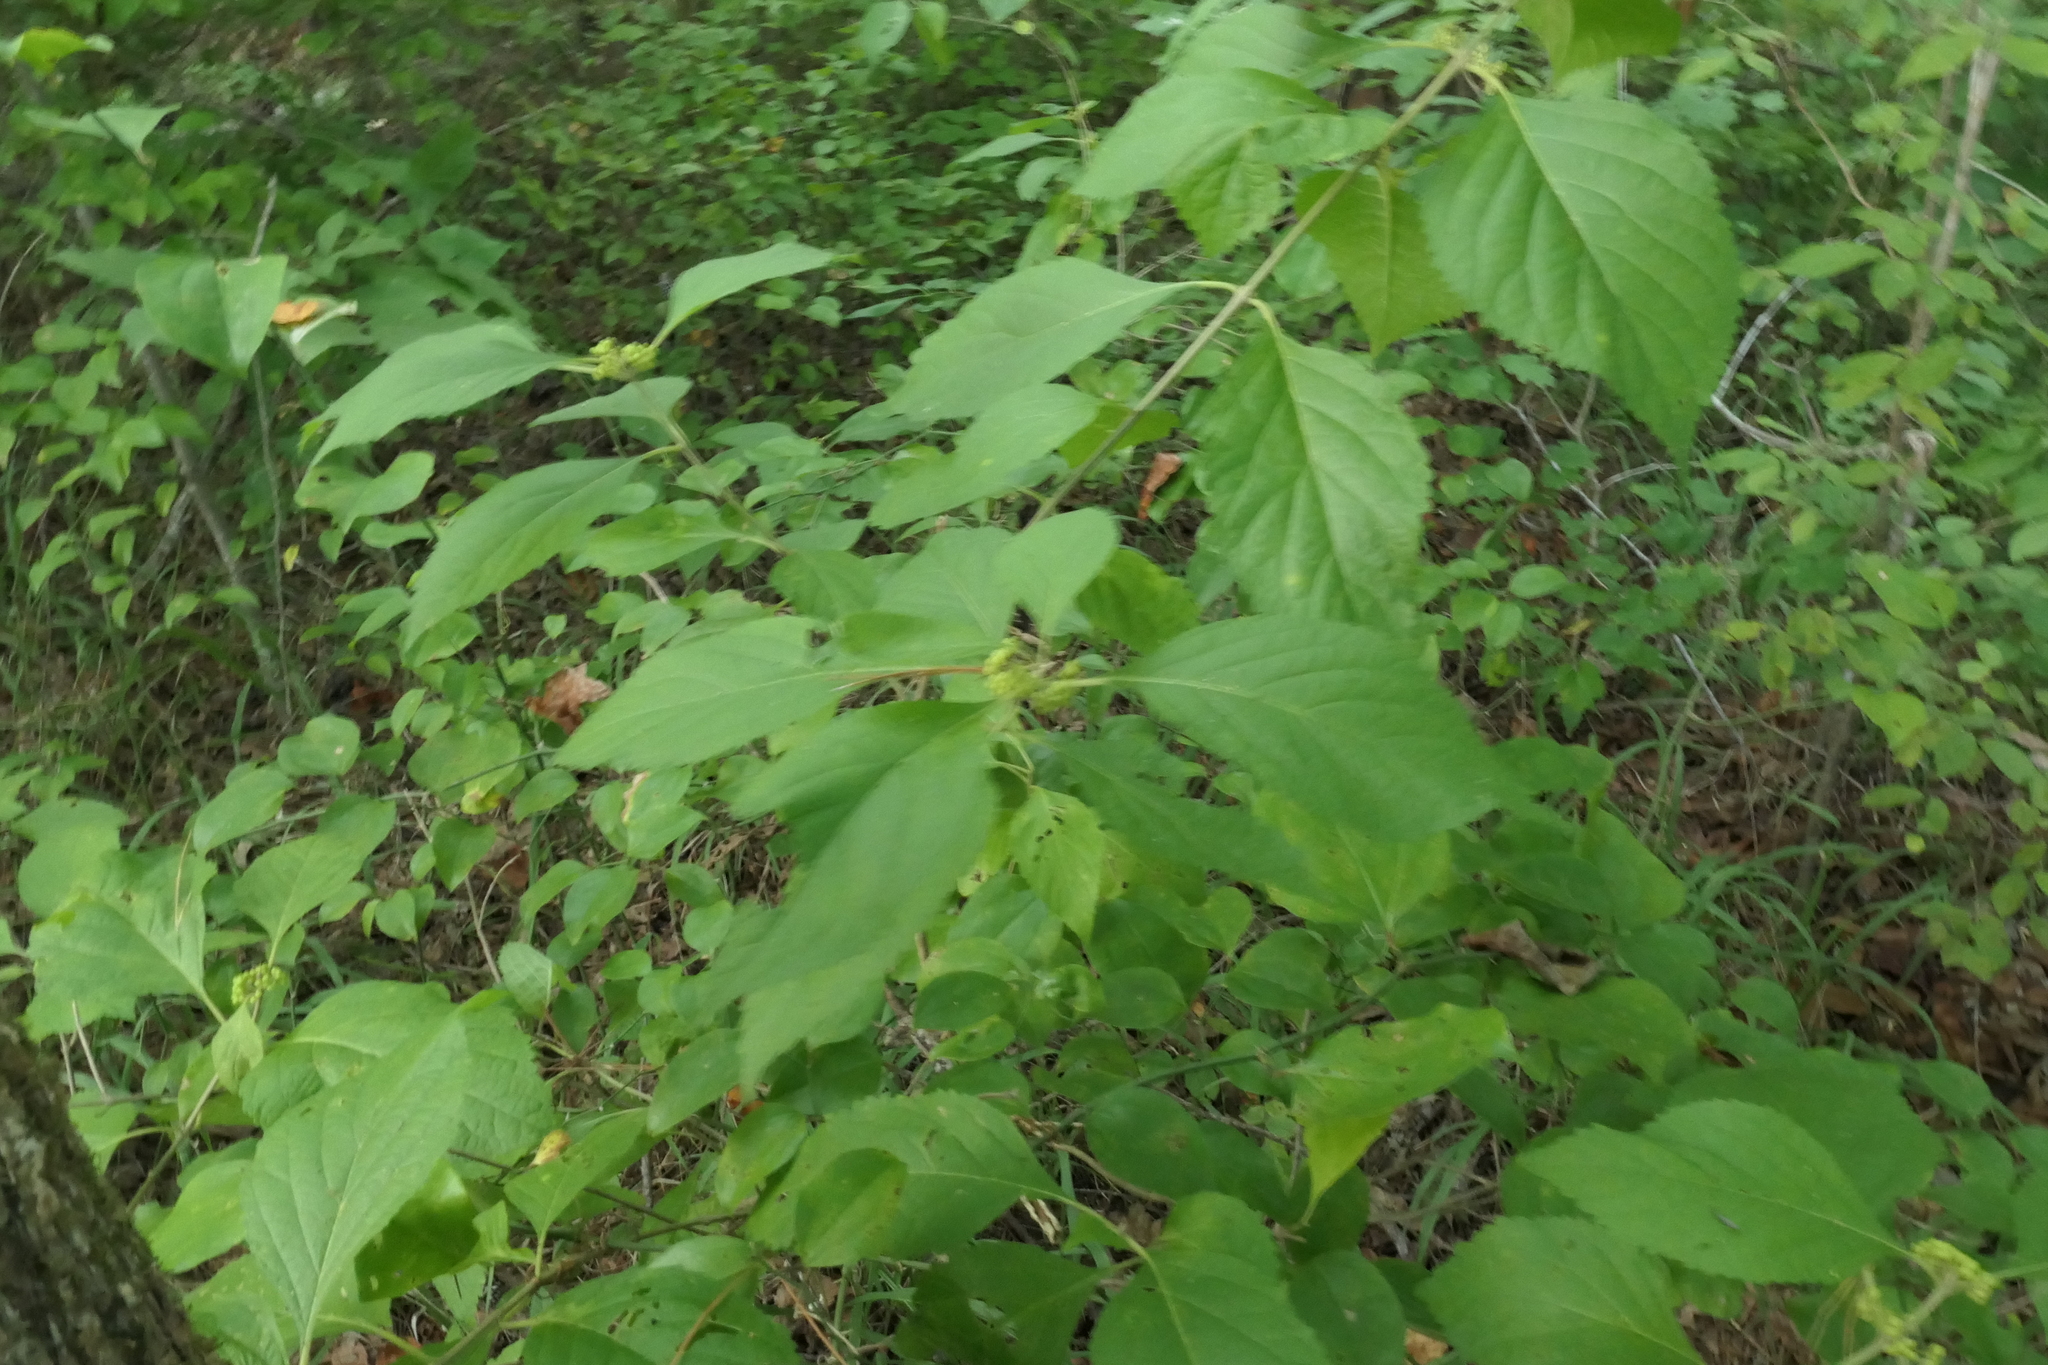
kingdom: Plantae
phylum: Tracheophyta
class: Magnoliopsida
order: Lamiales
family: Lamiaceae
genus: Callicarpa
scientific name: Callicarpa americana
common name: American beautyberry
